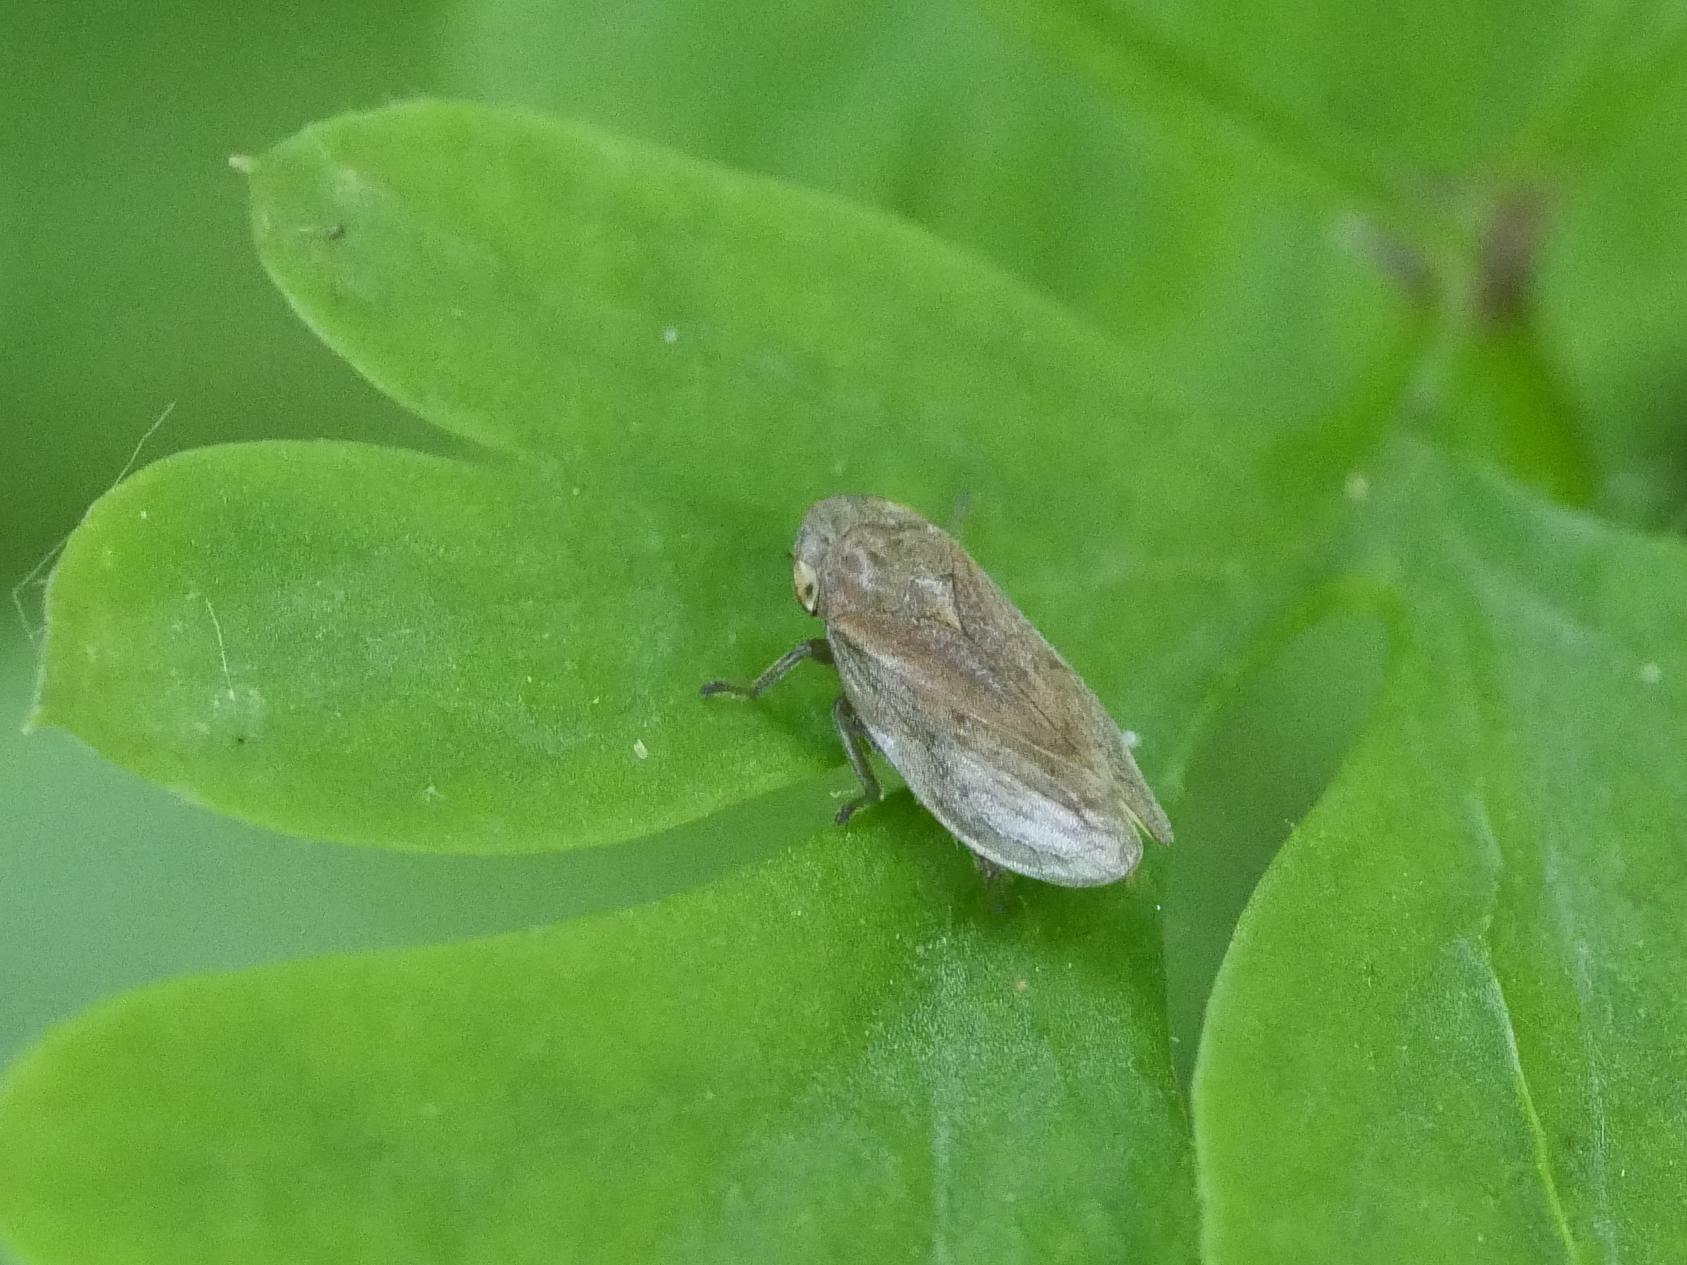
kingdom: Animalia
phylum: Arthropoda
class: Insecta
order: Hemiptera
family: Aphrophoridae
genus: Philaenus
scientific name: Philaenus spumarius
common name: Meadow spittlebug
